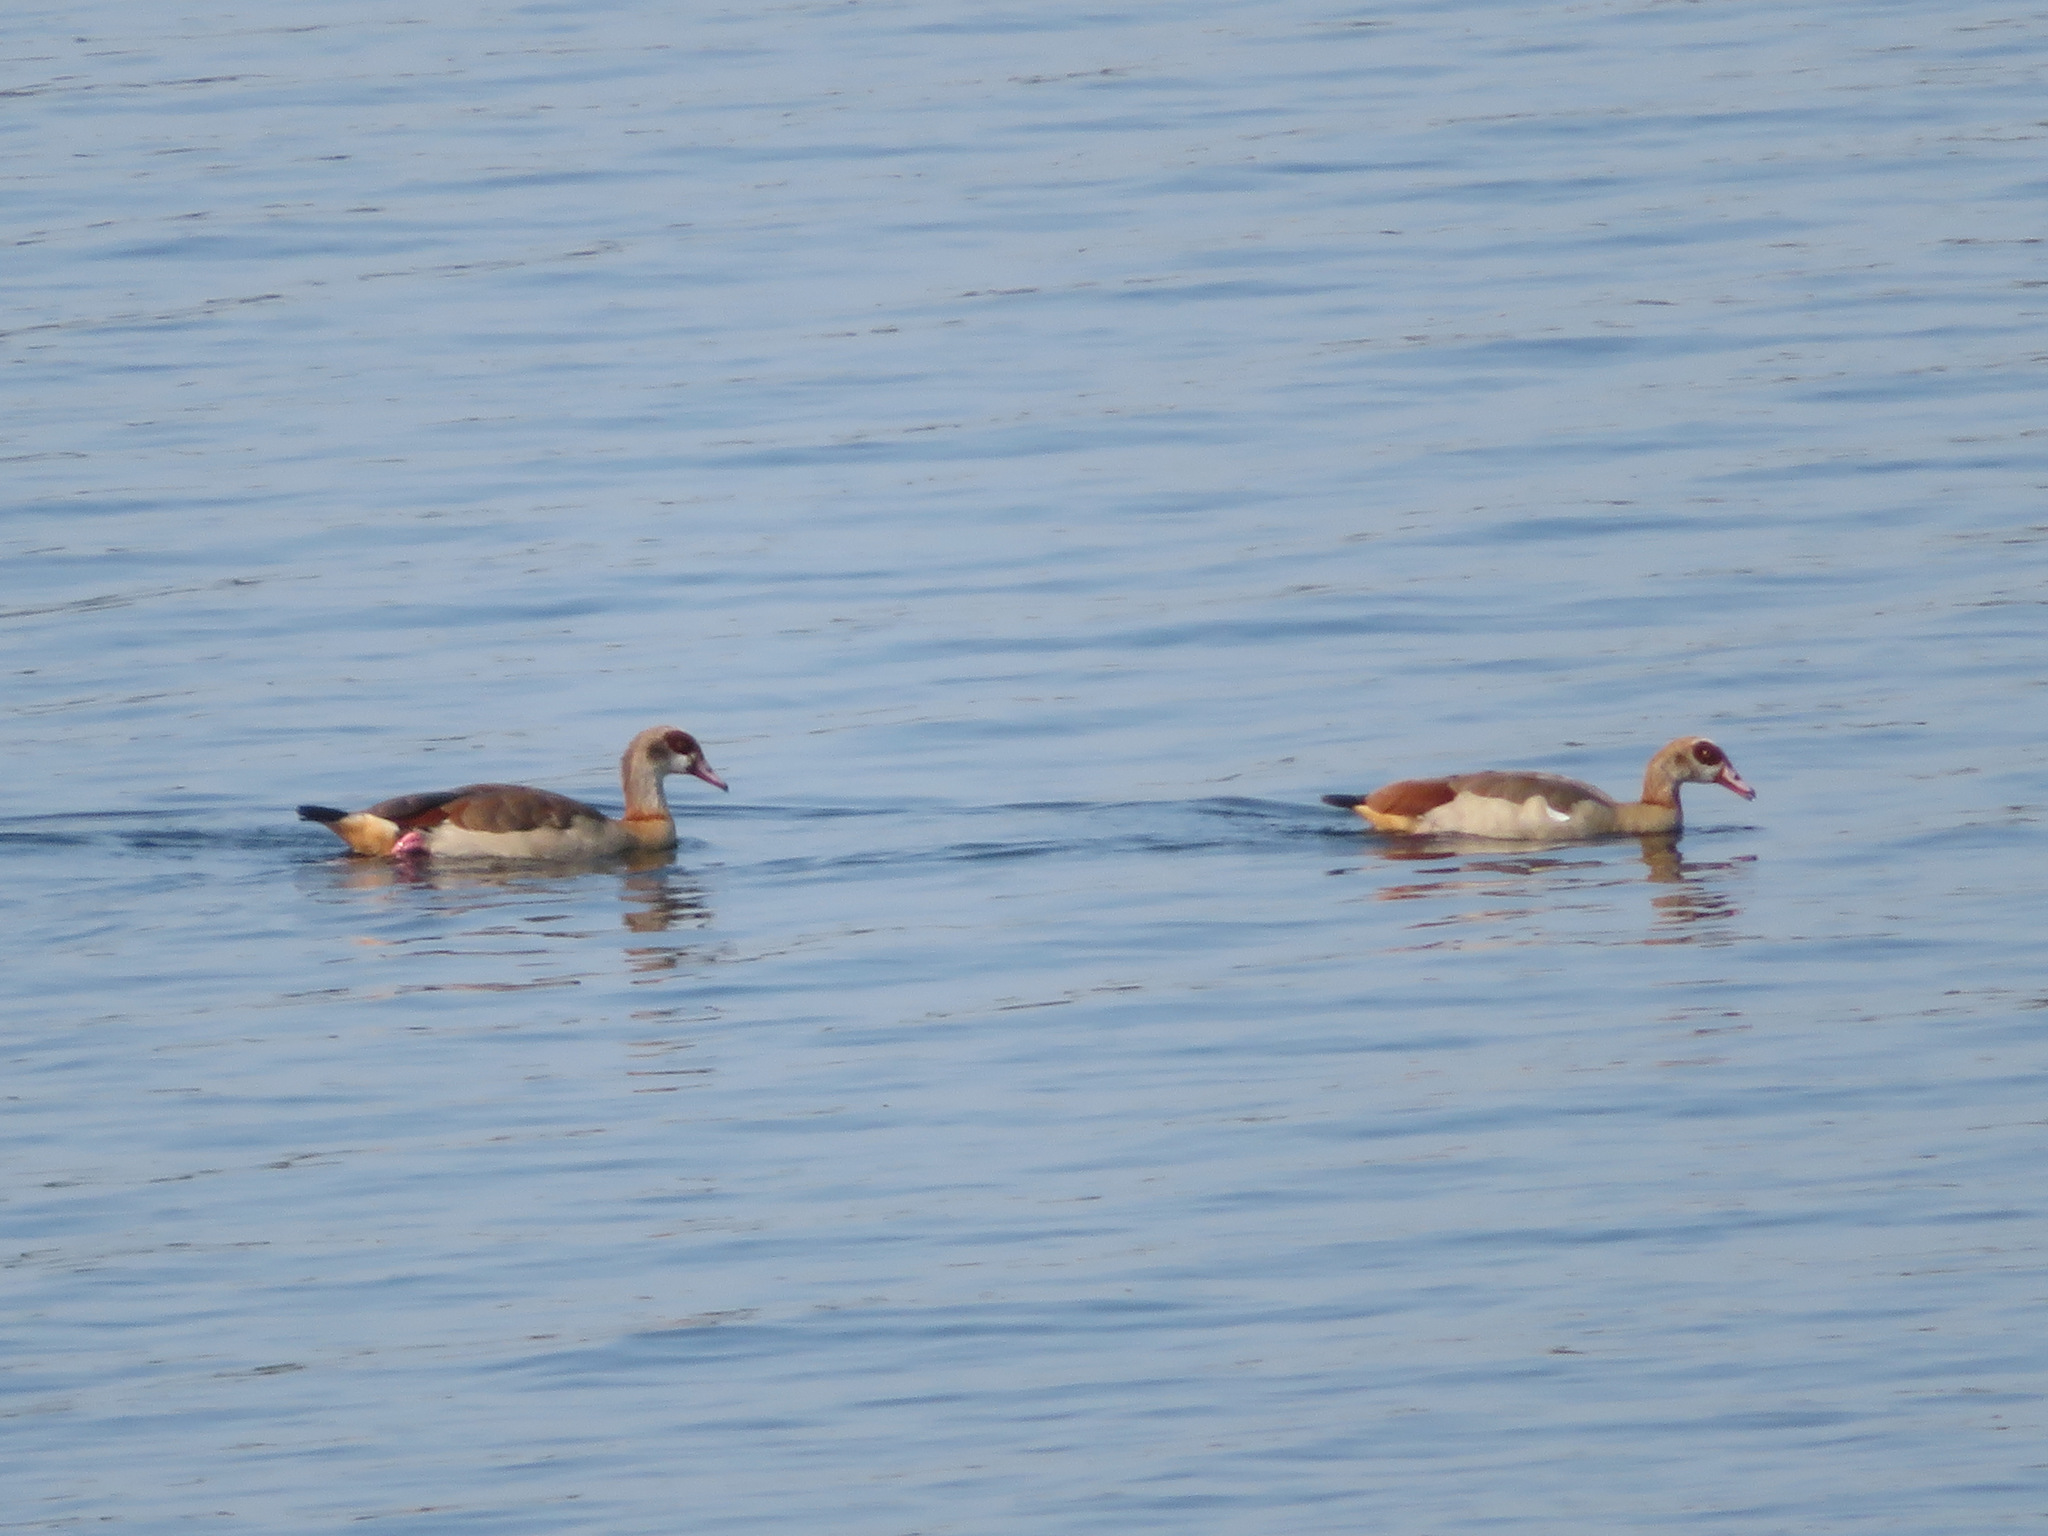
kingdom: Animalia
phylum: Chordata
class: Aves
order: Anseriformes
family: Anatidae
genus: Alopochen
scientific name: Alopochen aegyptiaca
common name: Egyptian goose
